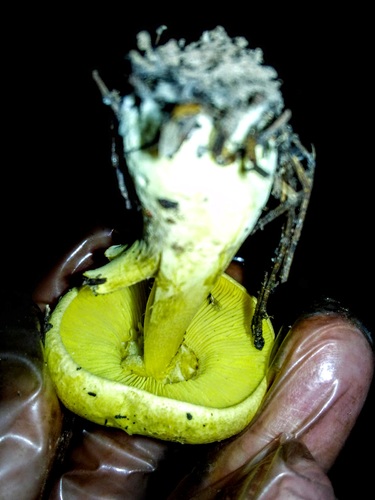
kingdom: Fungi
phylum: Basidiomycota
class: Agaricomycetes
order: Agaricales
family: Tricholomataceae
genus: Tricholoma
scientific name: Tricholoma equestre
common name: Yellow knight
